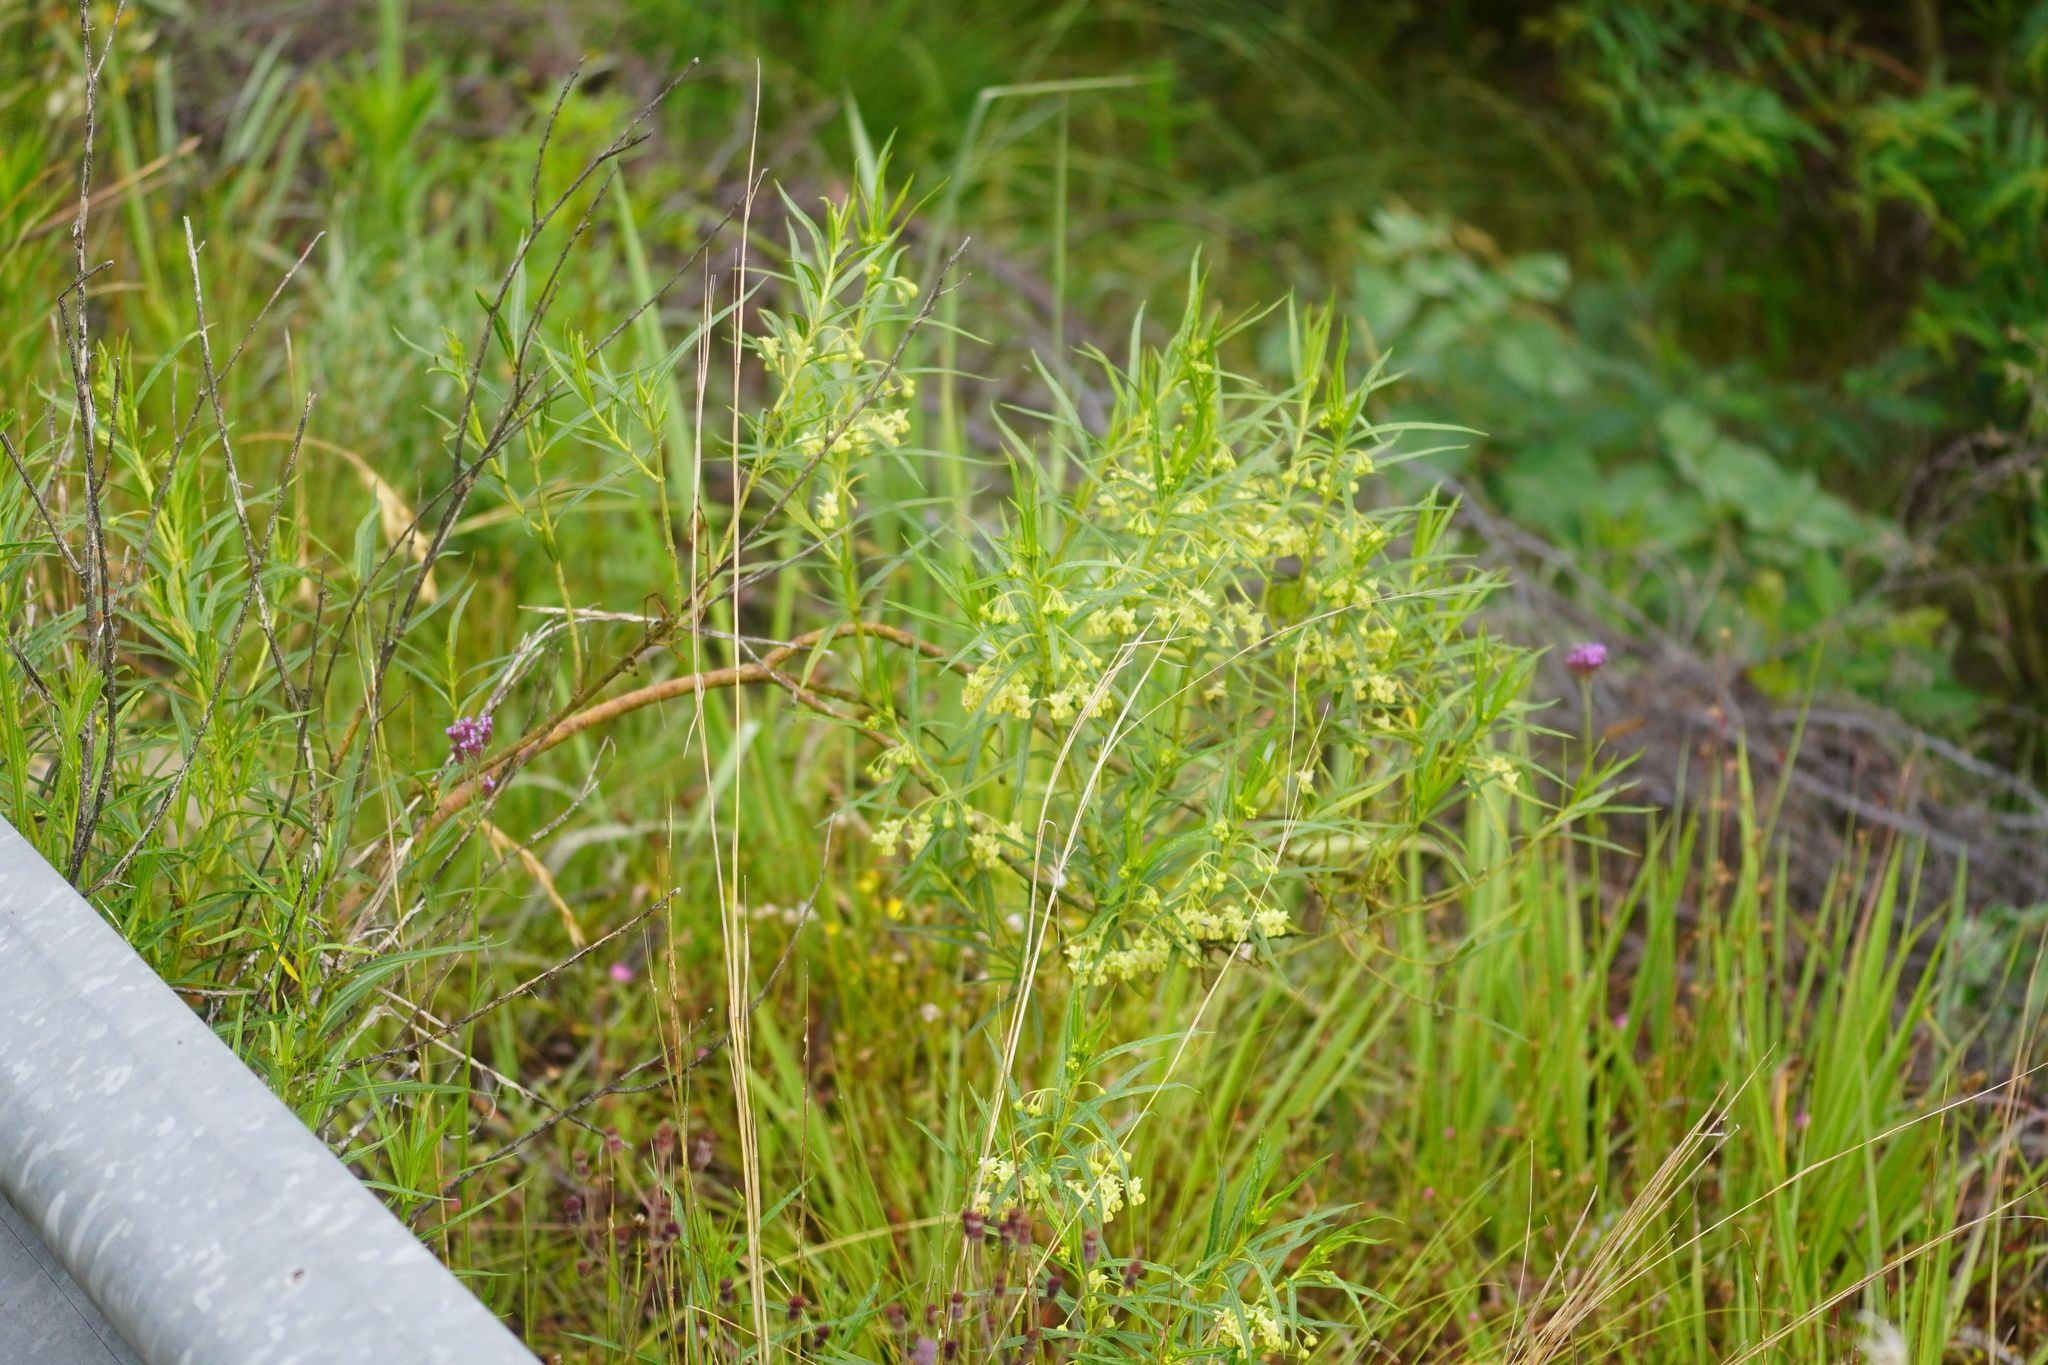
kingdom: Plantae
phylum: Tracheophyta
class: Magnoliopsida
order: Gentianales
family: Apocynaceae
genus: Gomphocarpus
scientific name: Gomphocarpus fruticosus
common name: Milkweed
